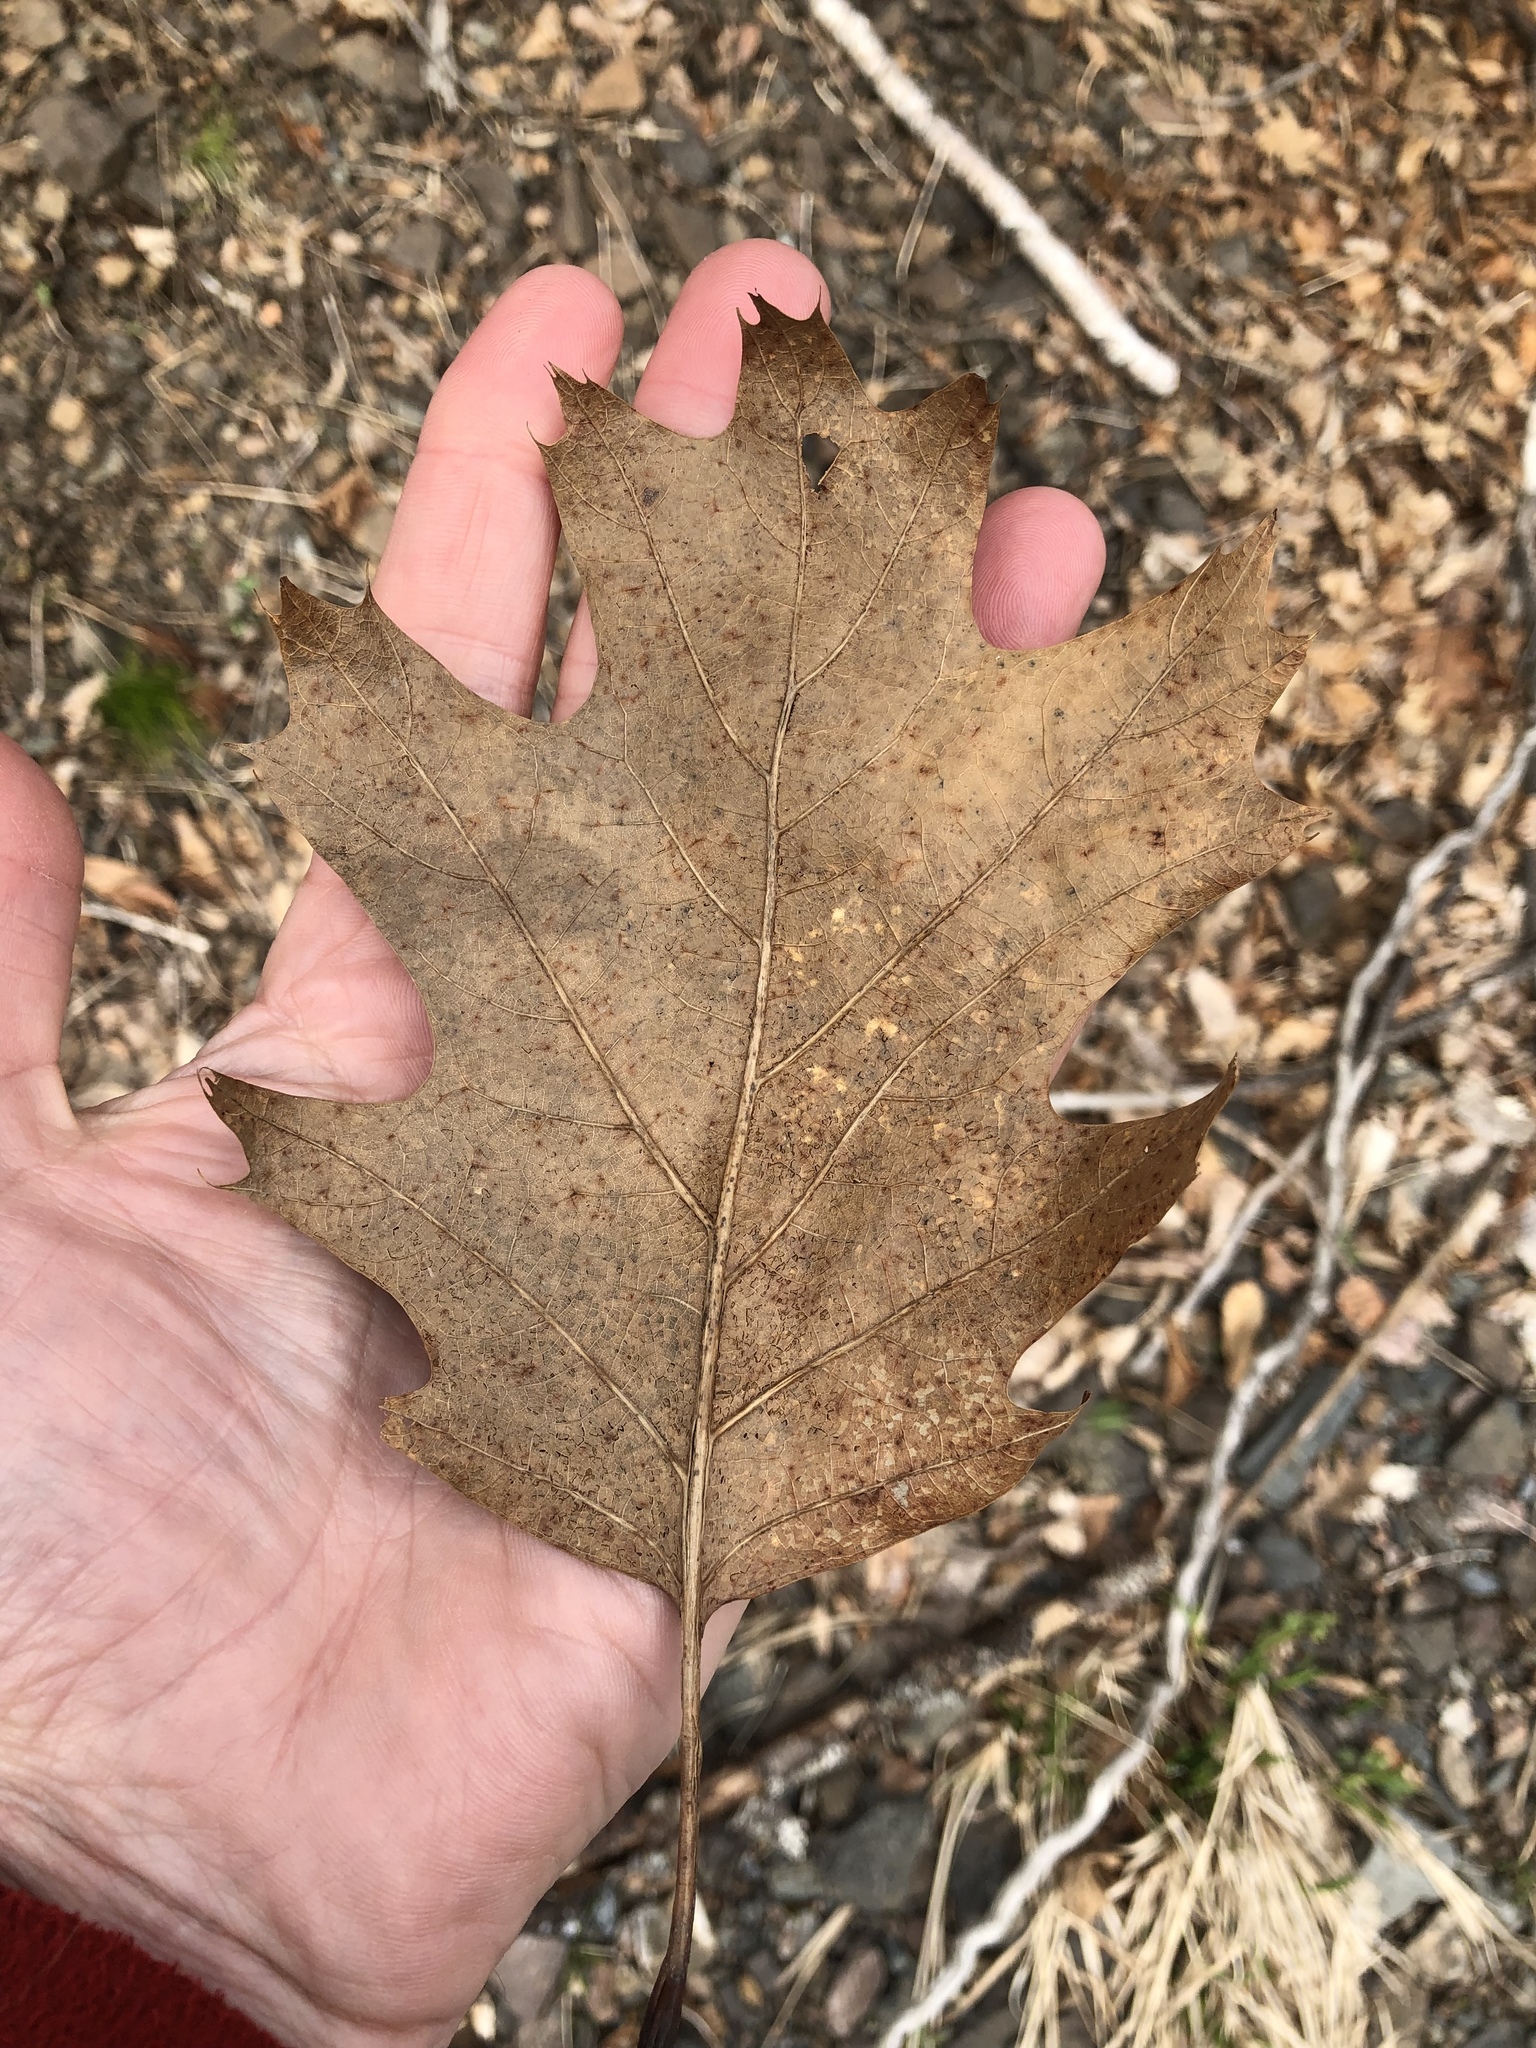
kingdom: Plantae
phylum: Tracheophyta
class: Magnoliopsida
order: Fagales
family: Fagaceae
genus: Quercus
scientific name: Quercus rubra
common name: Red oak
